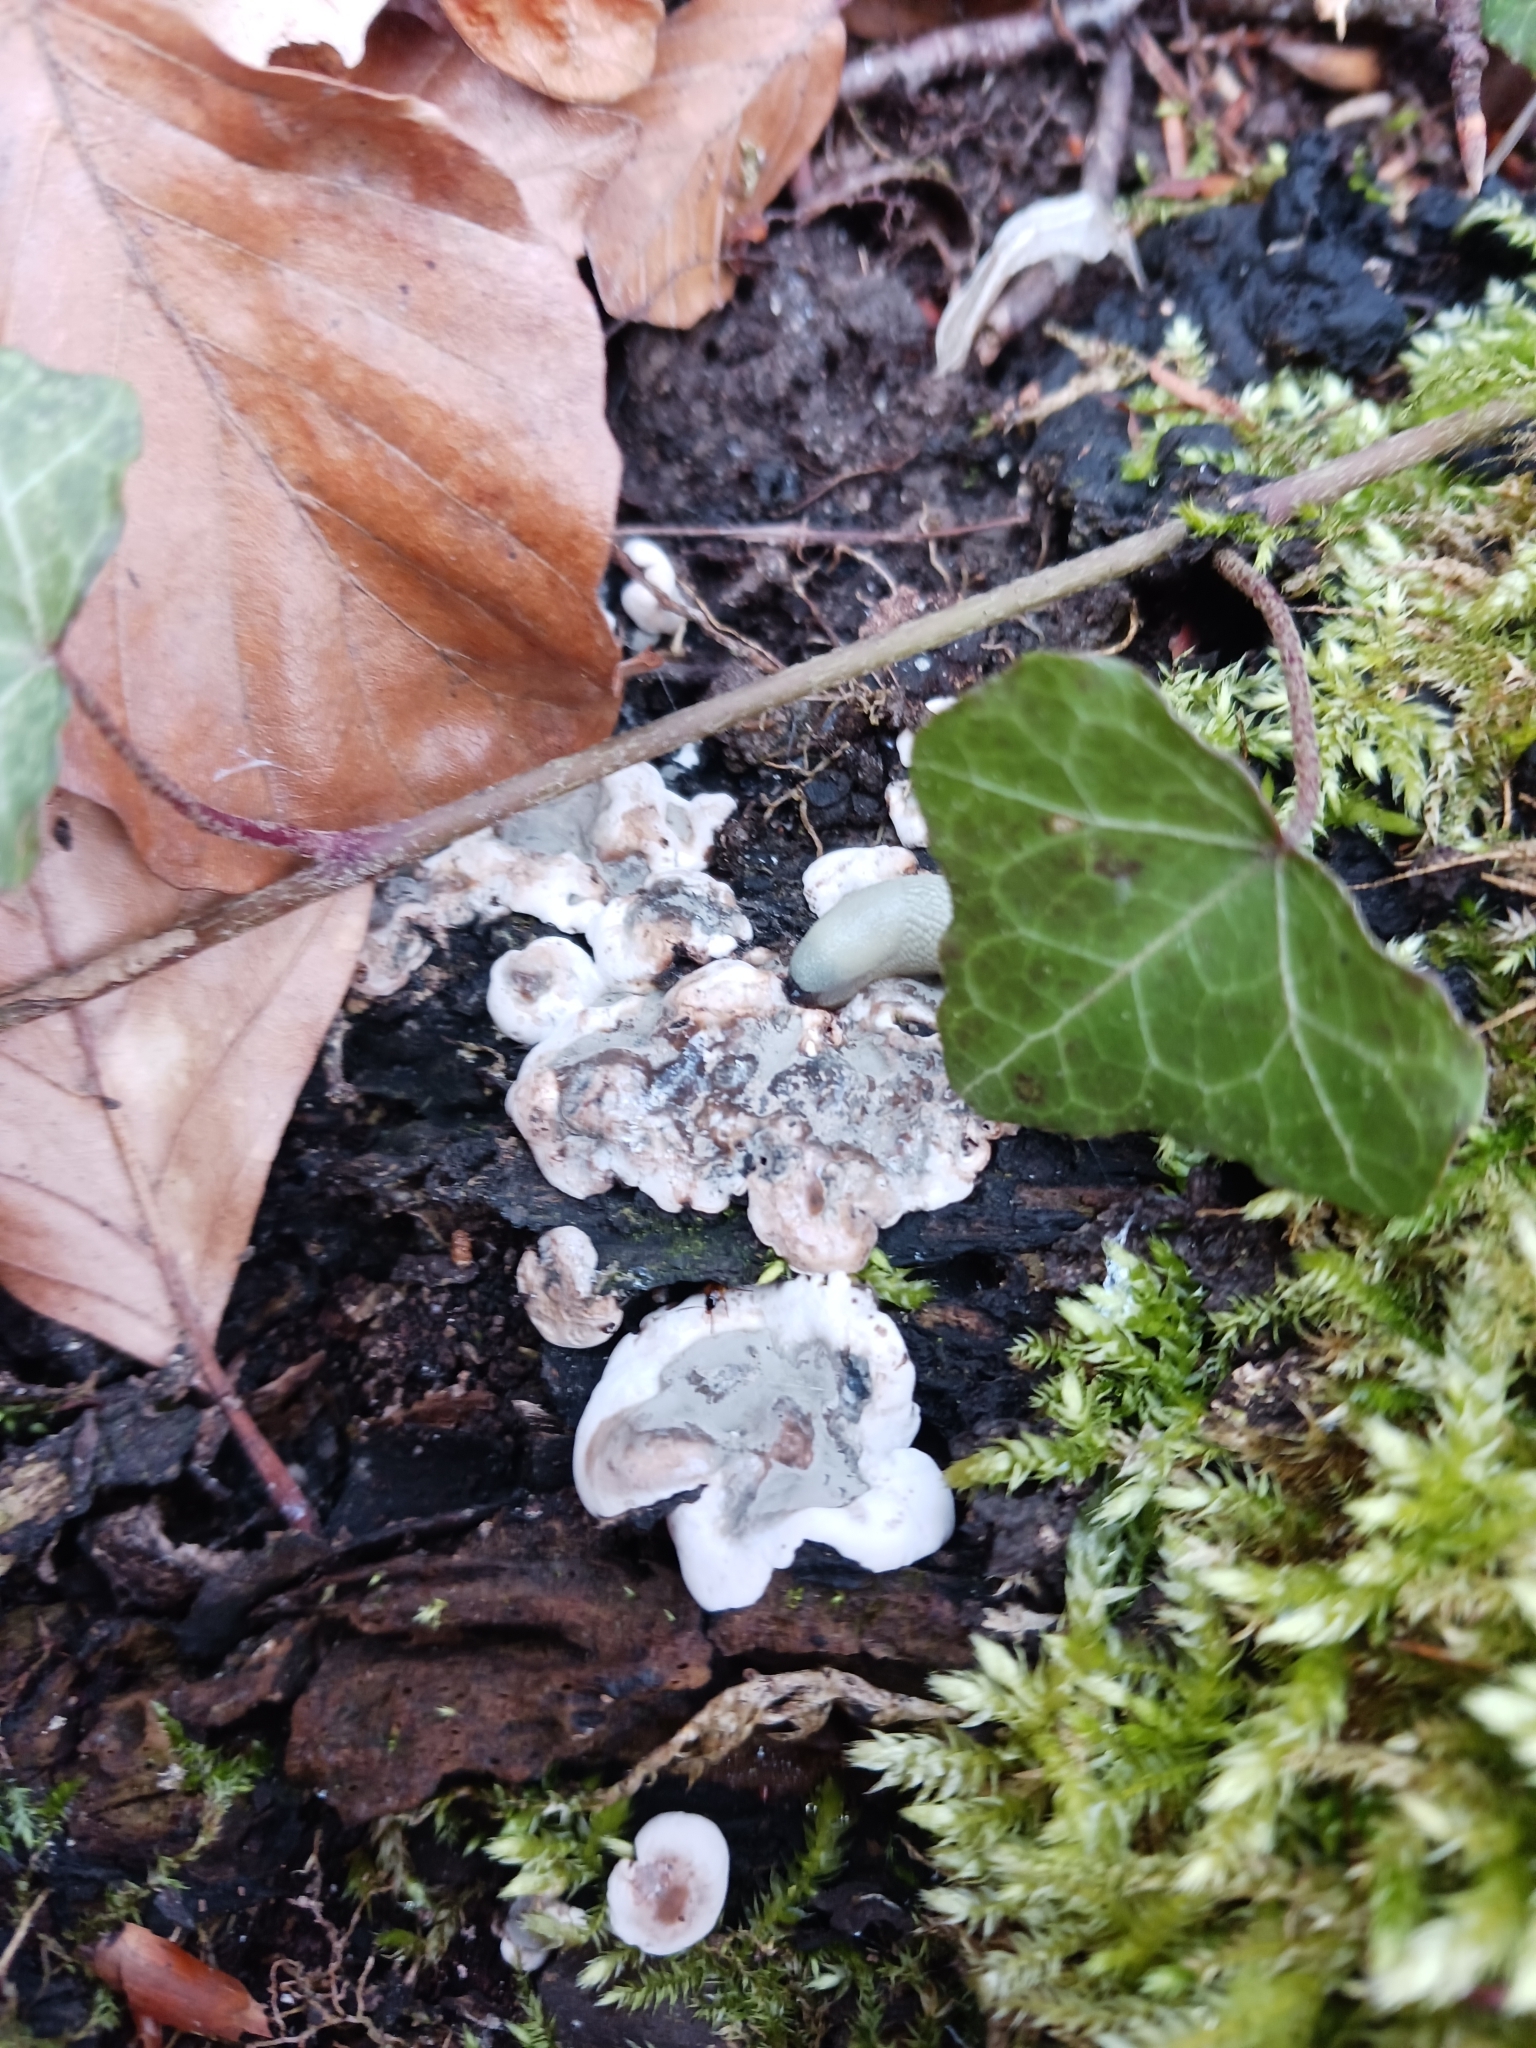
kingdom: Fungi
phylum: Ascomycota
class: Sordariomycetes
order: Xylariales
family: Xylariaceae
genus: Kretzschmaria
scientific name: Kretzschmaria deusta
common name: Brittle cinder
